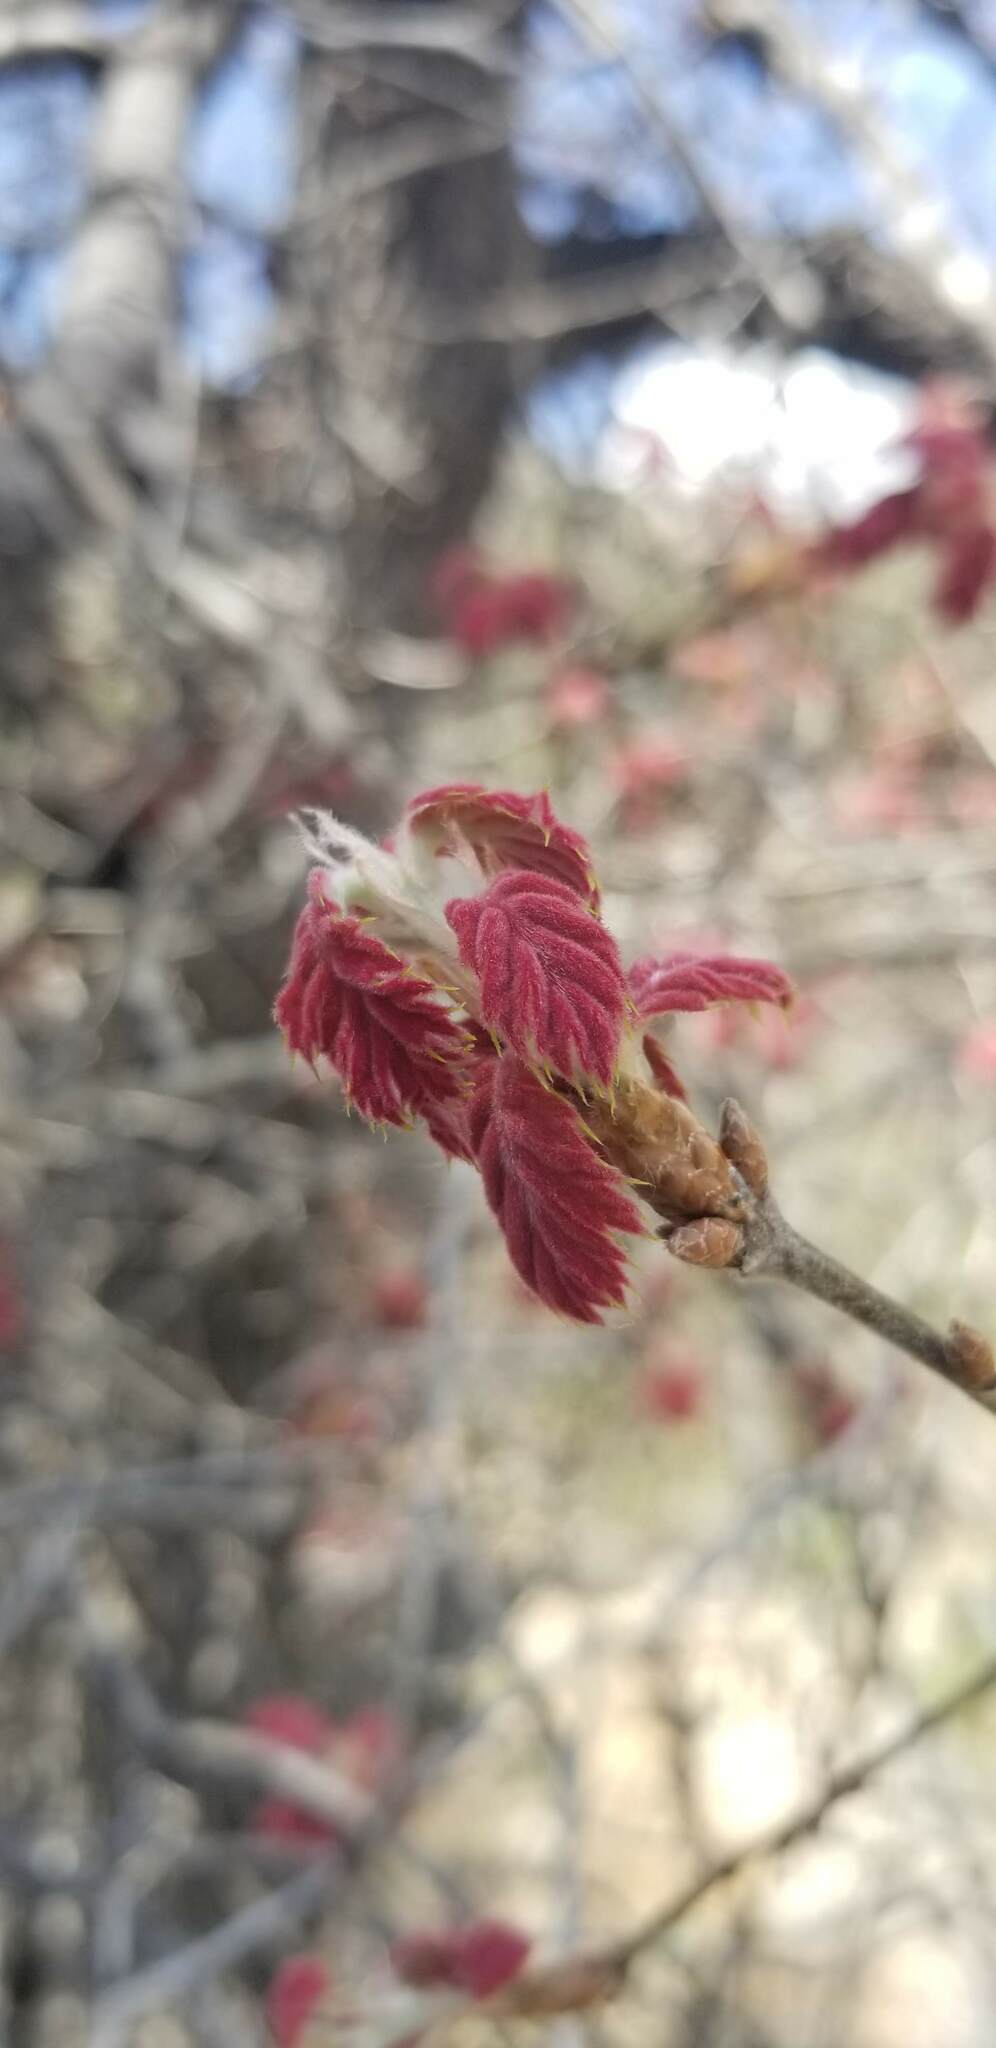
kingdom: Plantae
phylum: Tracheophyta
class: Magnoliopsida
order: Fagales
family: Fagaceae
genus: Quercus
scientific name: Quercus kelloggii
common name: California black oak
